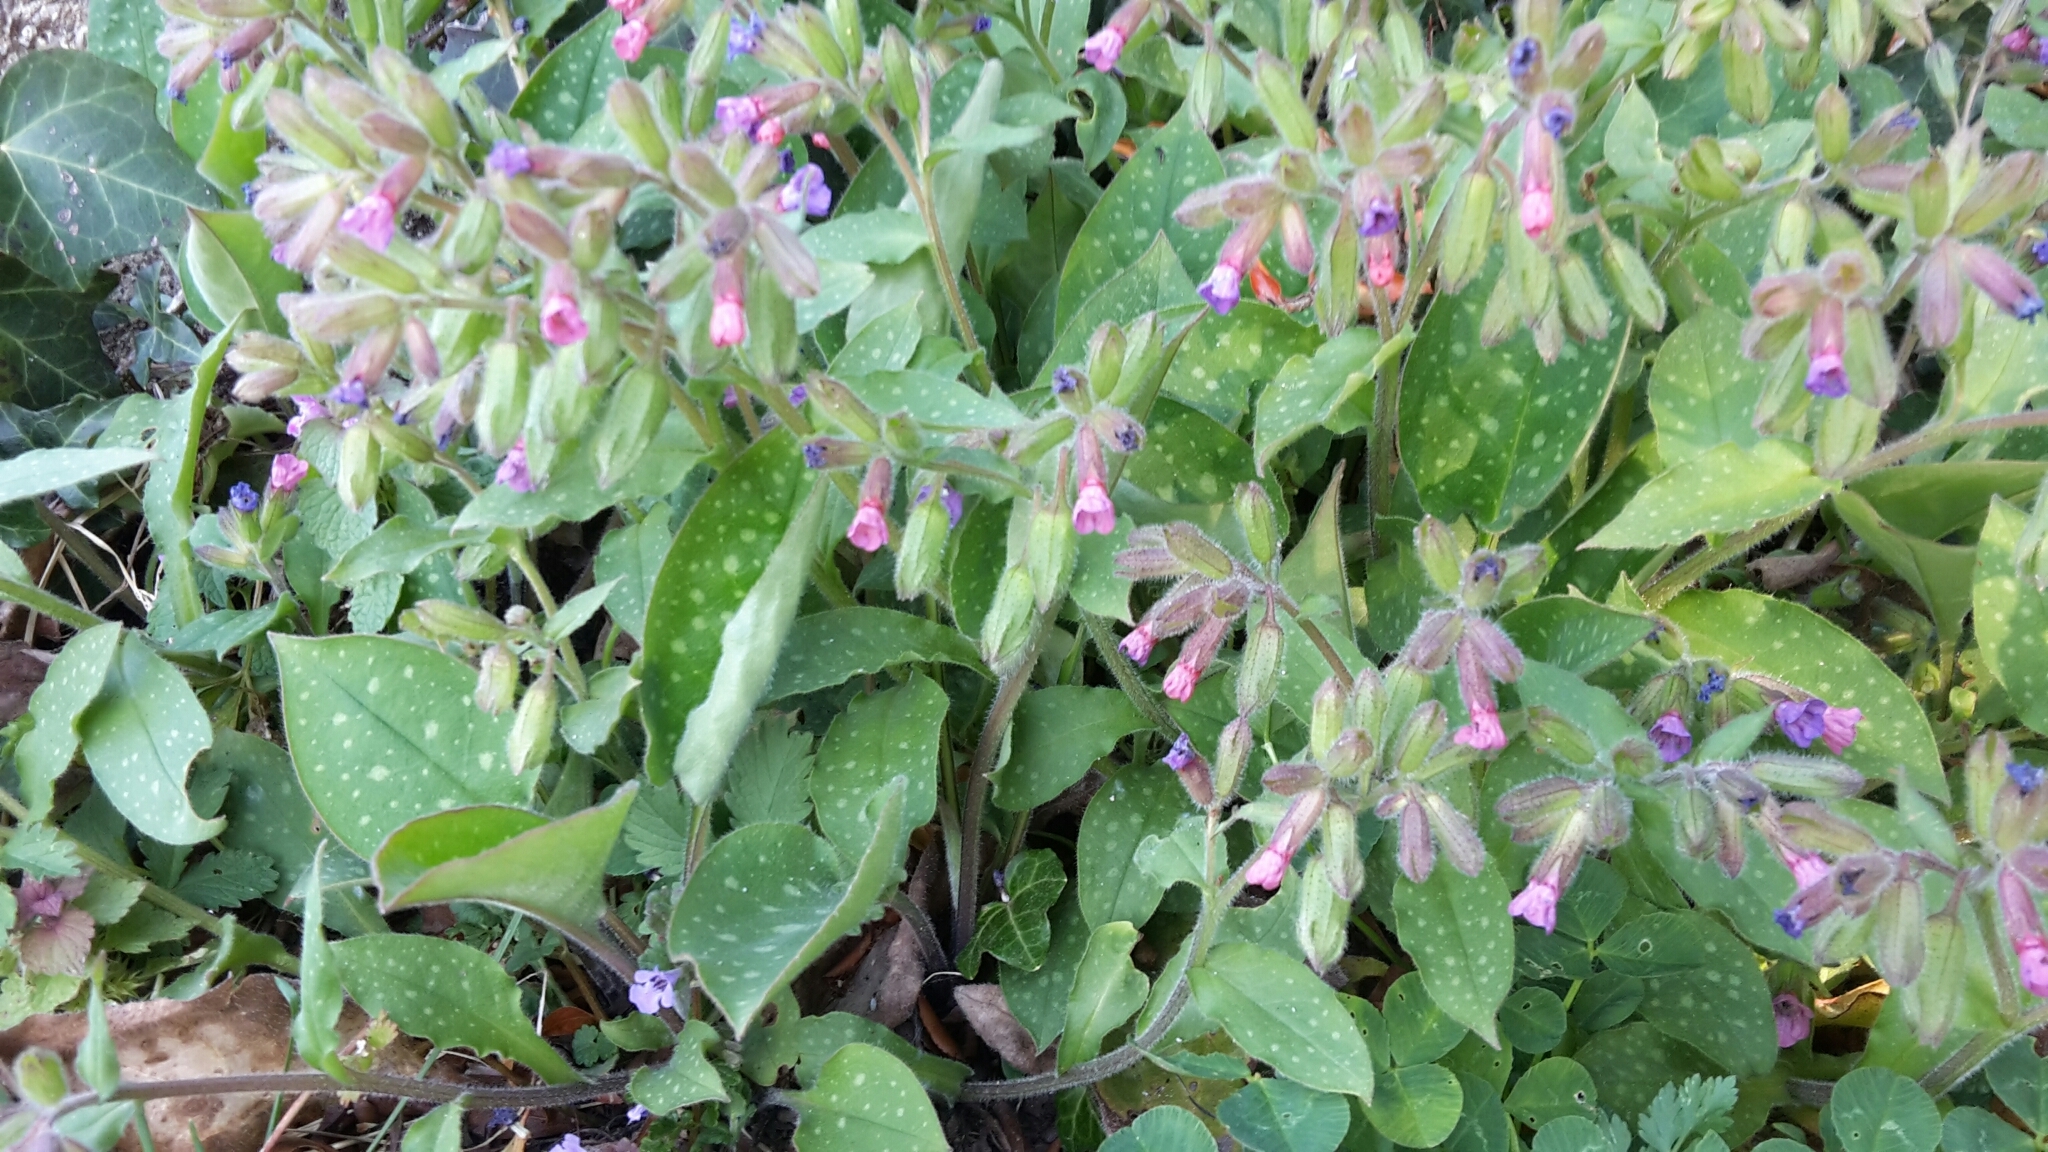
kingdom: Plantae
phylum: Tracheophyta
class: Magnoliopsida
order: Boraginales
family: Boraginaceae
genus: Pulmonaria
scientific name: Pulmonaria officinalis
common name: Lungwort
